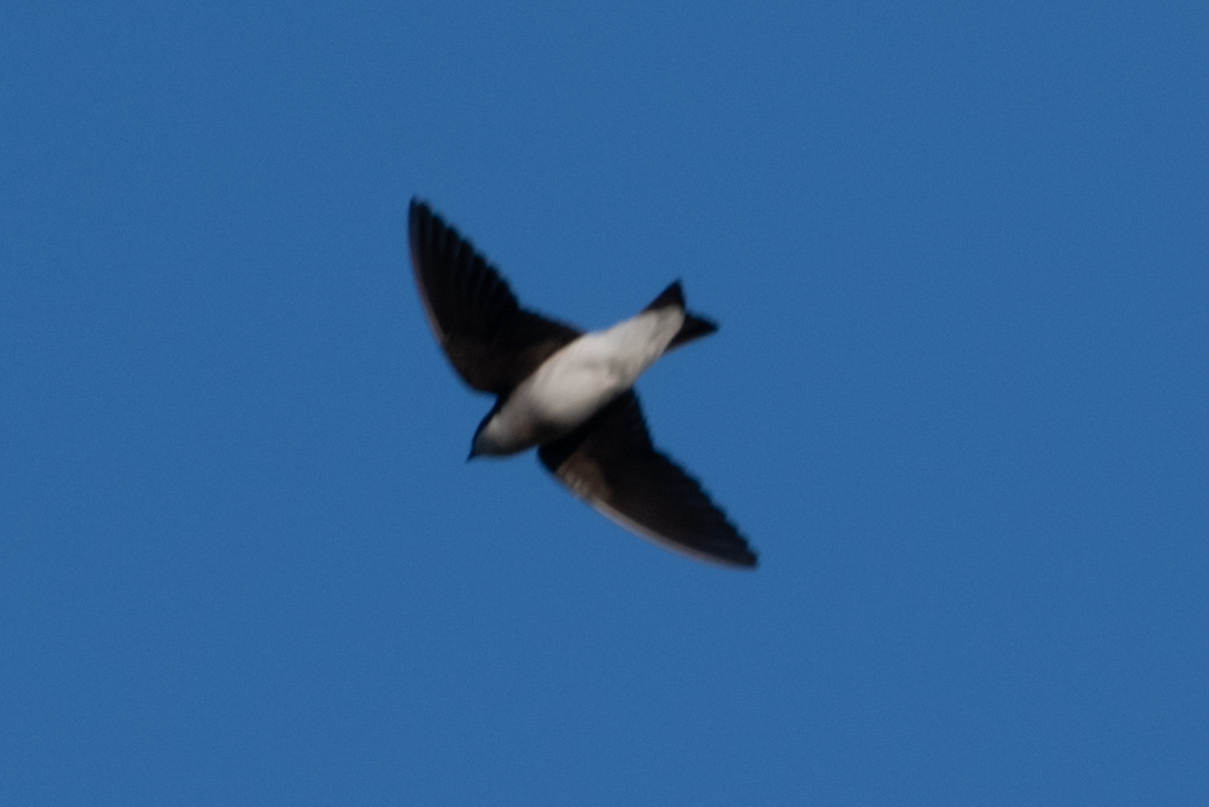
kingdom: Animalia
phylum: Chordata
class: Aves
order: Passeriformes
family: Hirundinidae
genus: Tachycineta
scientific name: Tachycineta bicolor
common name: Tree swallow
